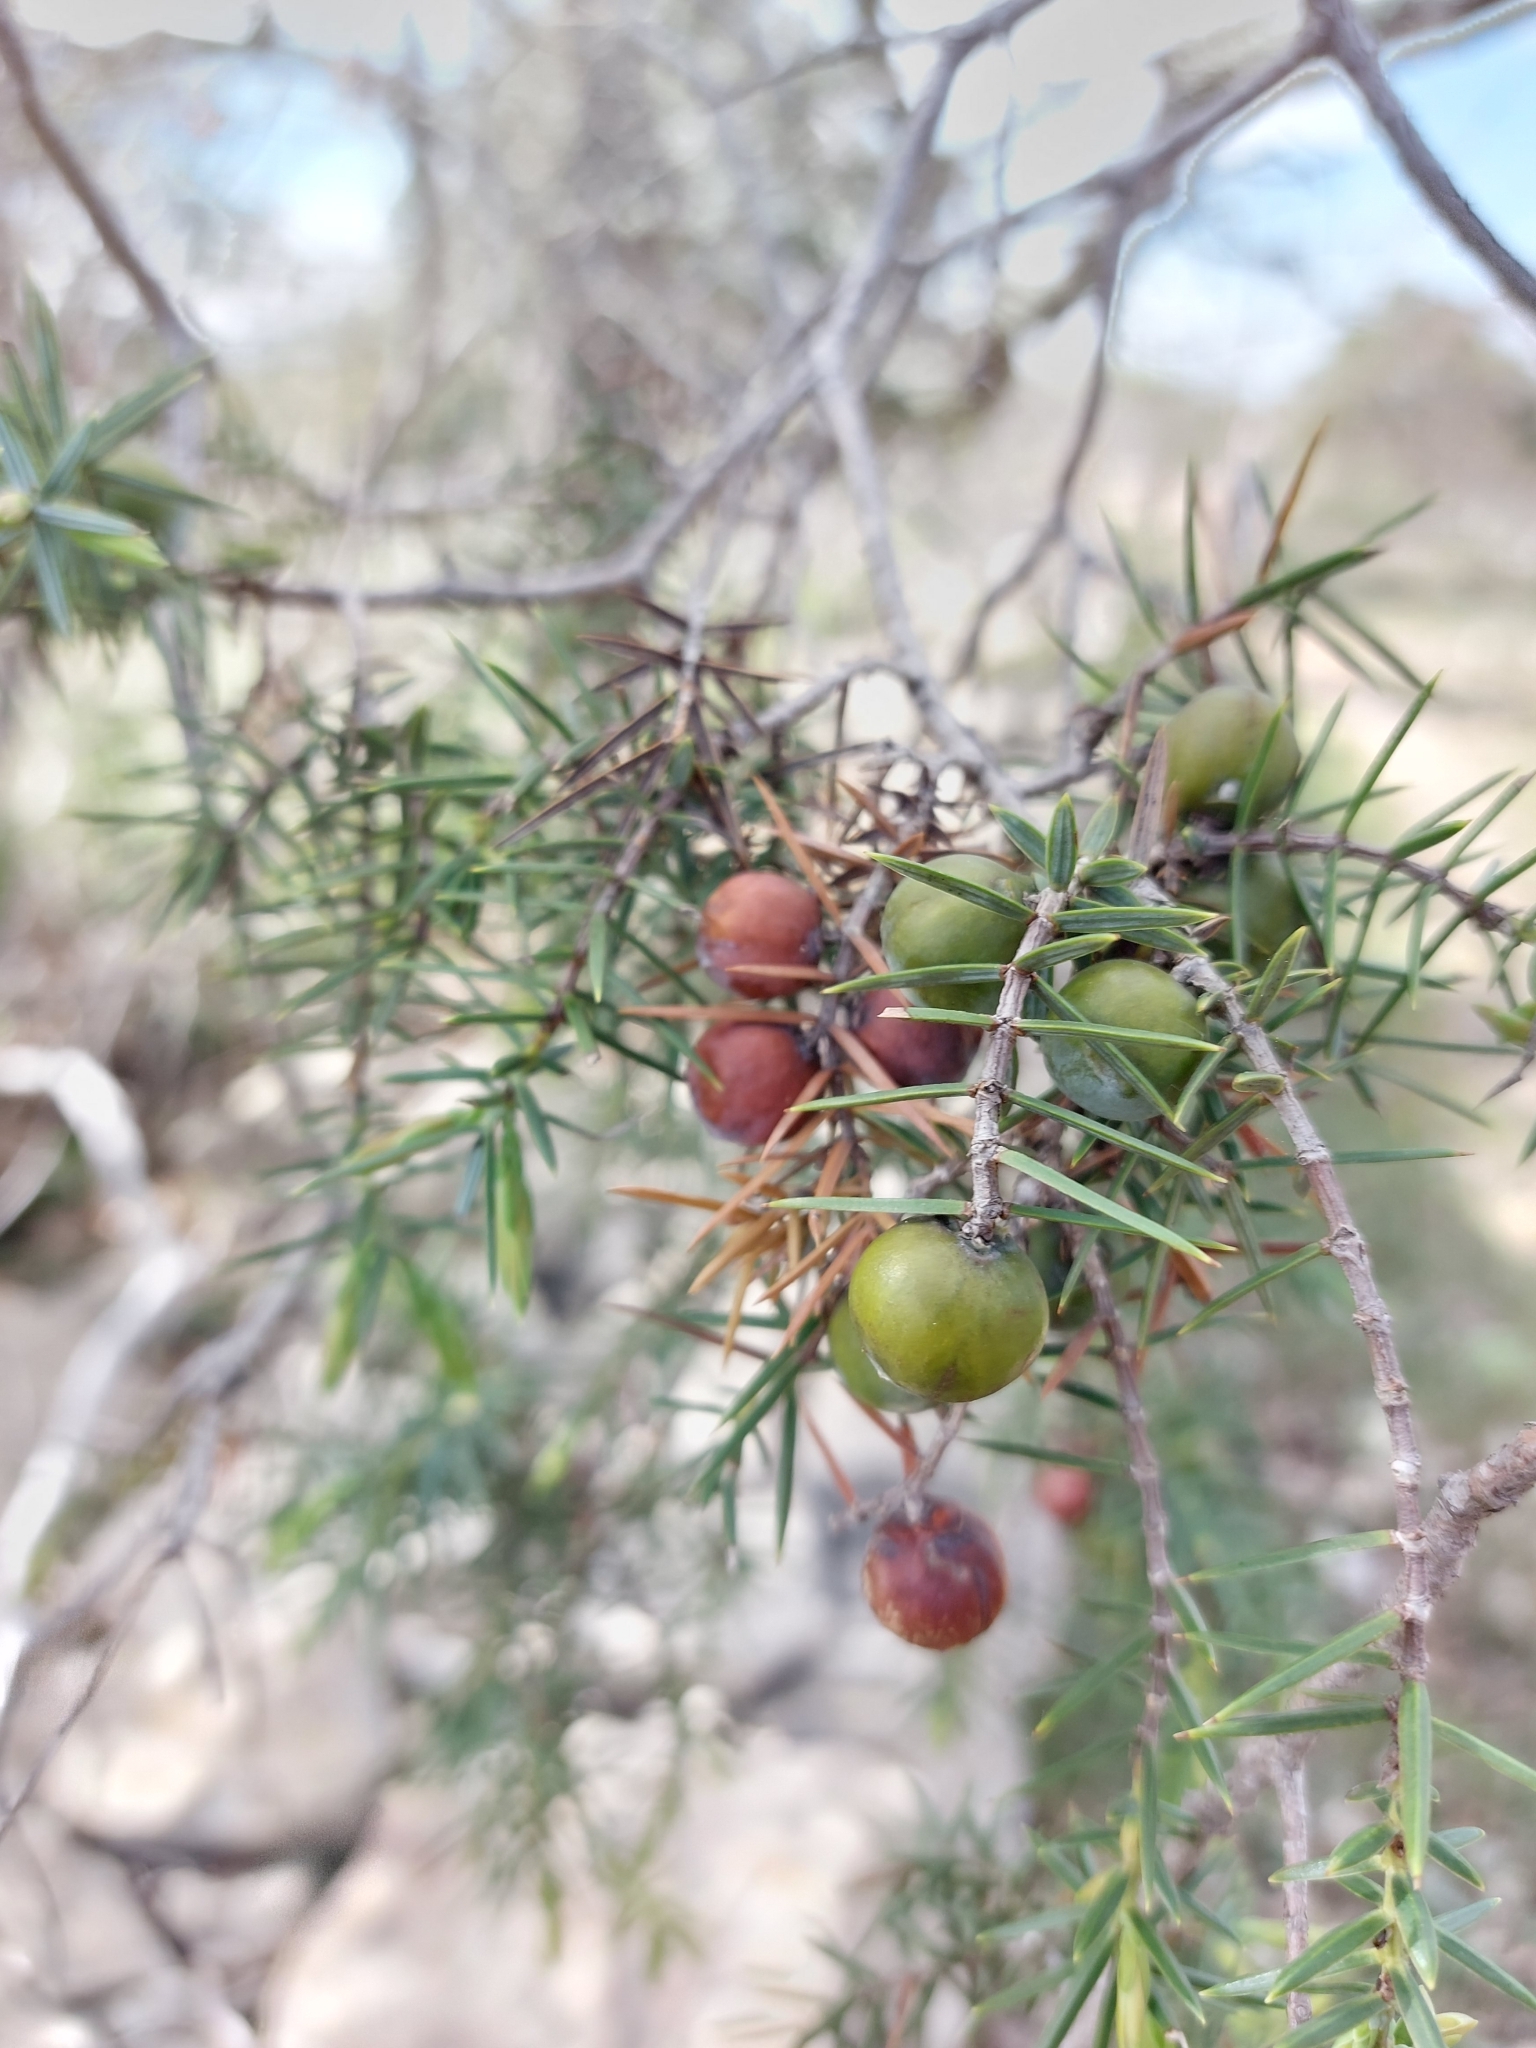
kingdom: Plantae
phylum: Tracheophyta
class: Pinopsida
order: Pinales
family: Cupressaceae
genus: Juniperus
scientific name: Juniperus oxycedrus
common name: Prickly juniper
